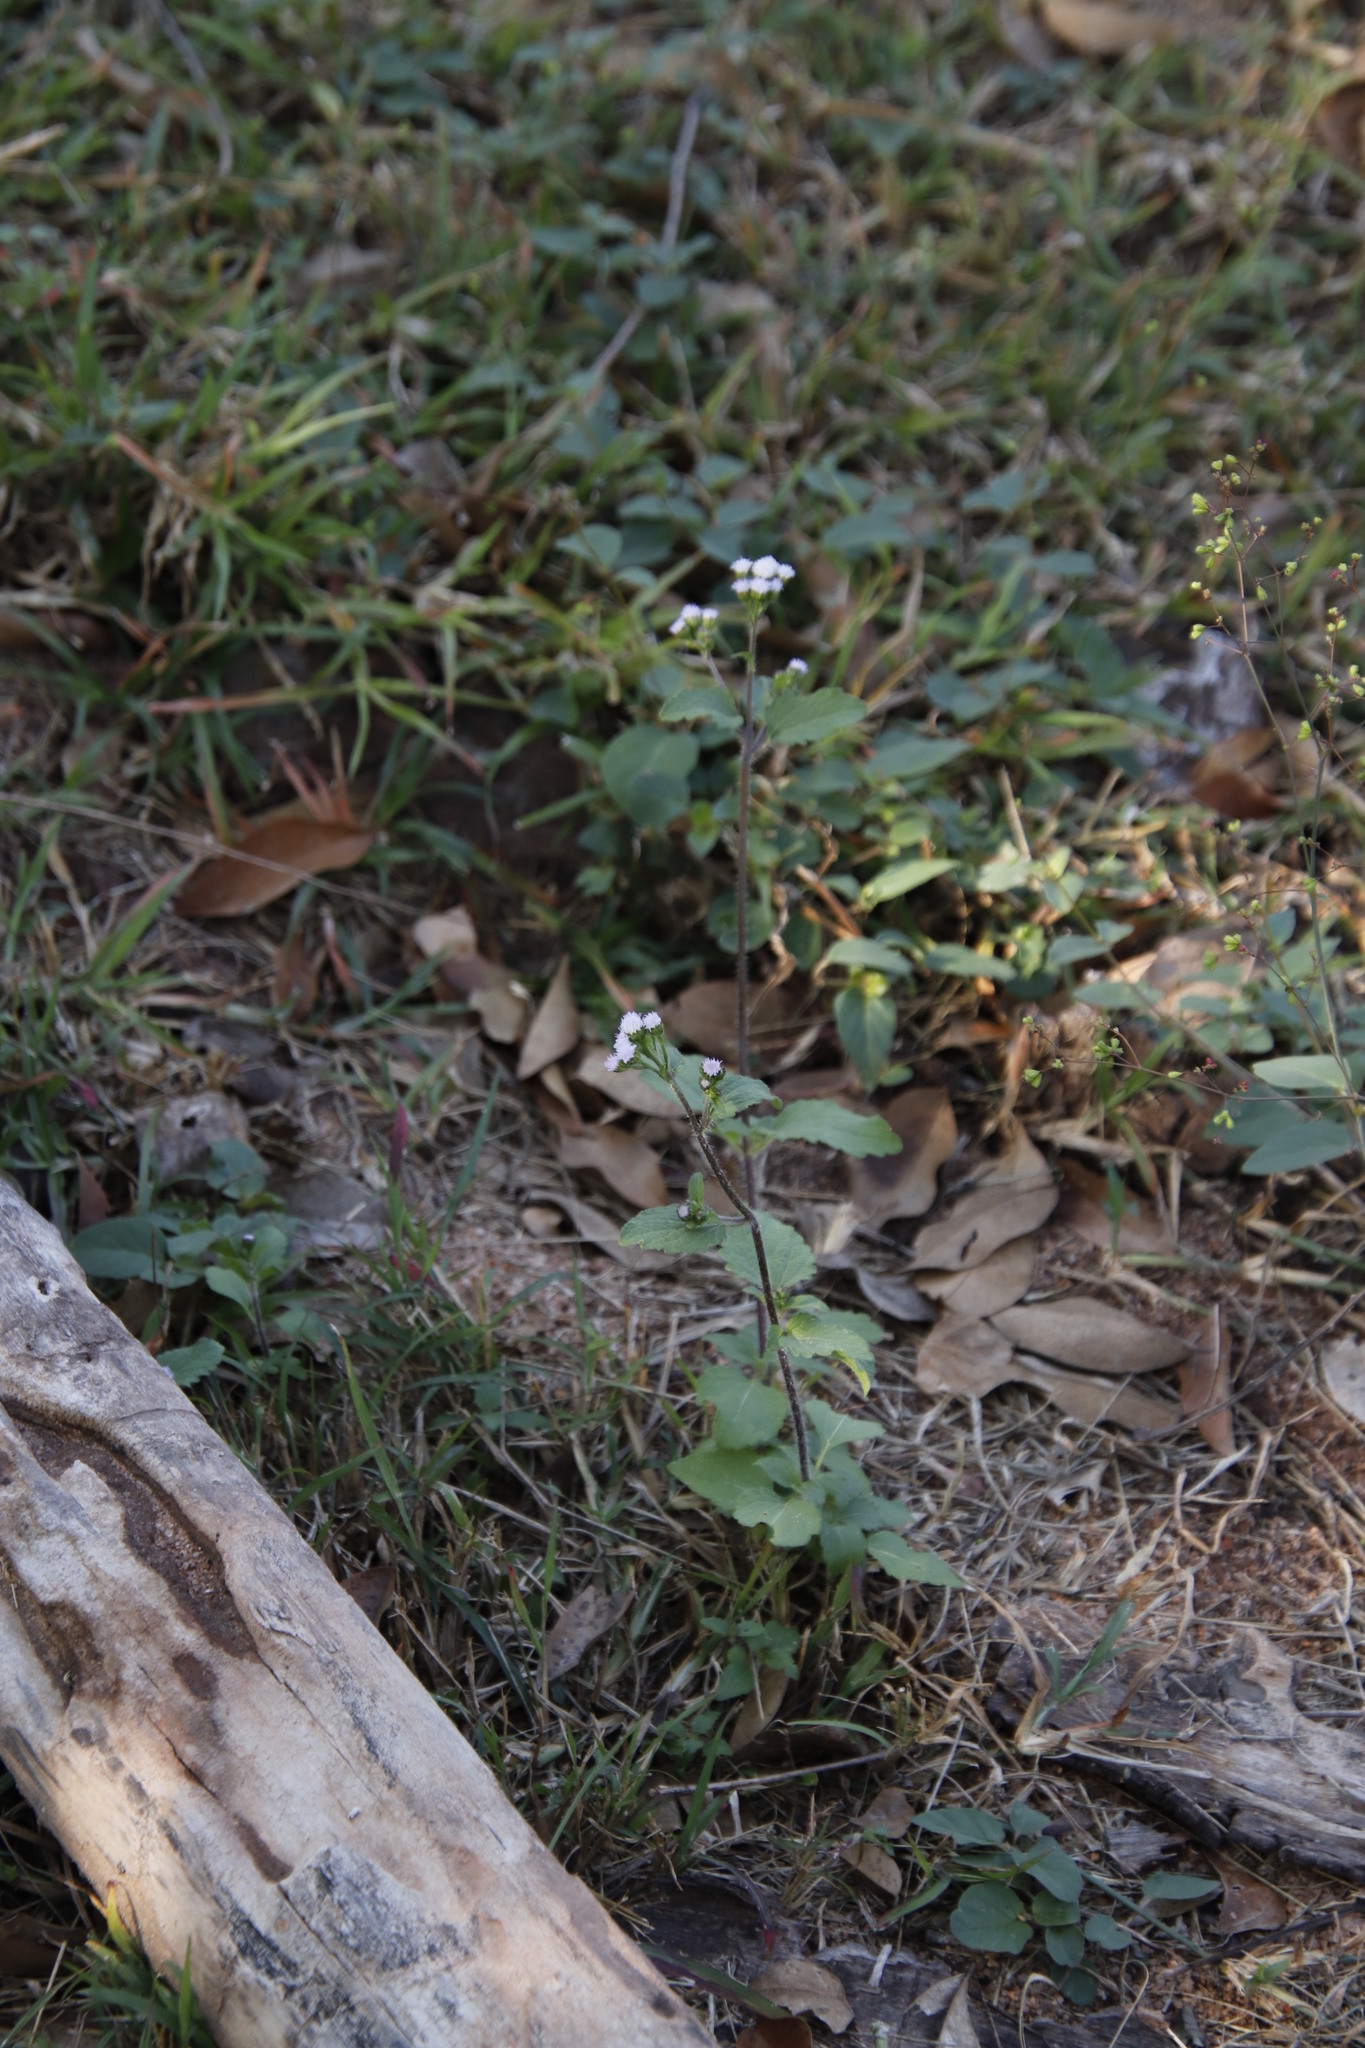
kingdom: Plantae
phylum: Tracheophyta
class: Magnoliopsida
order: Asterales
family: Asteraceae
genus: Ageratum
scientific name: Ageratum conyzoides
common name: Tropical whiteweed
